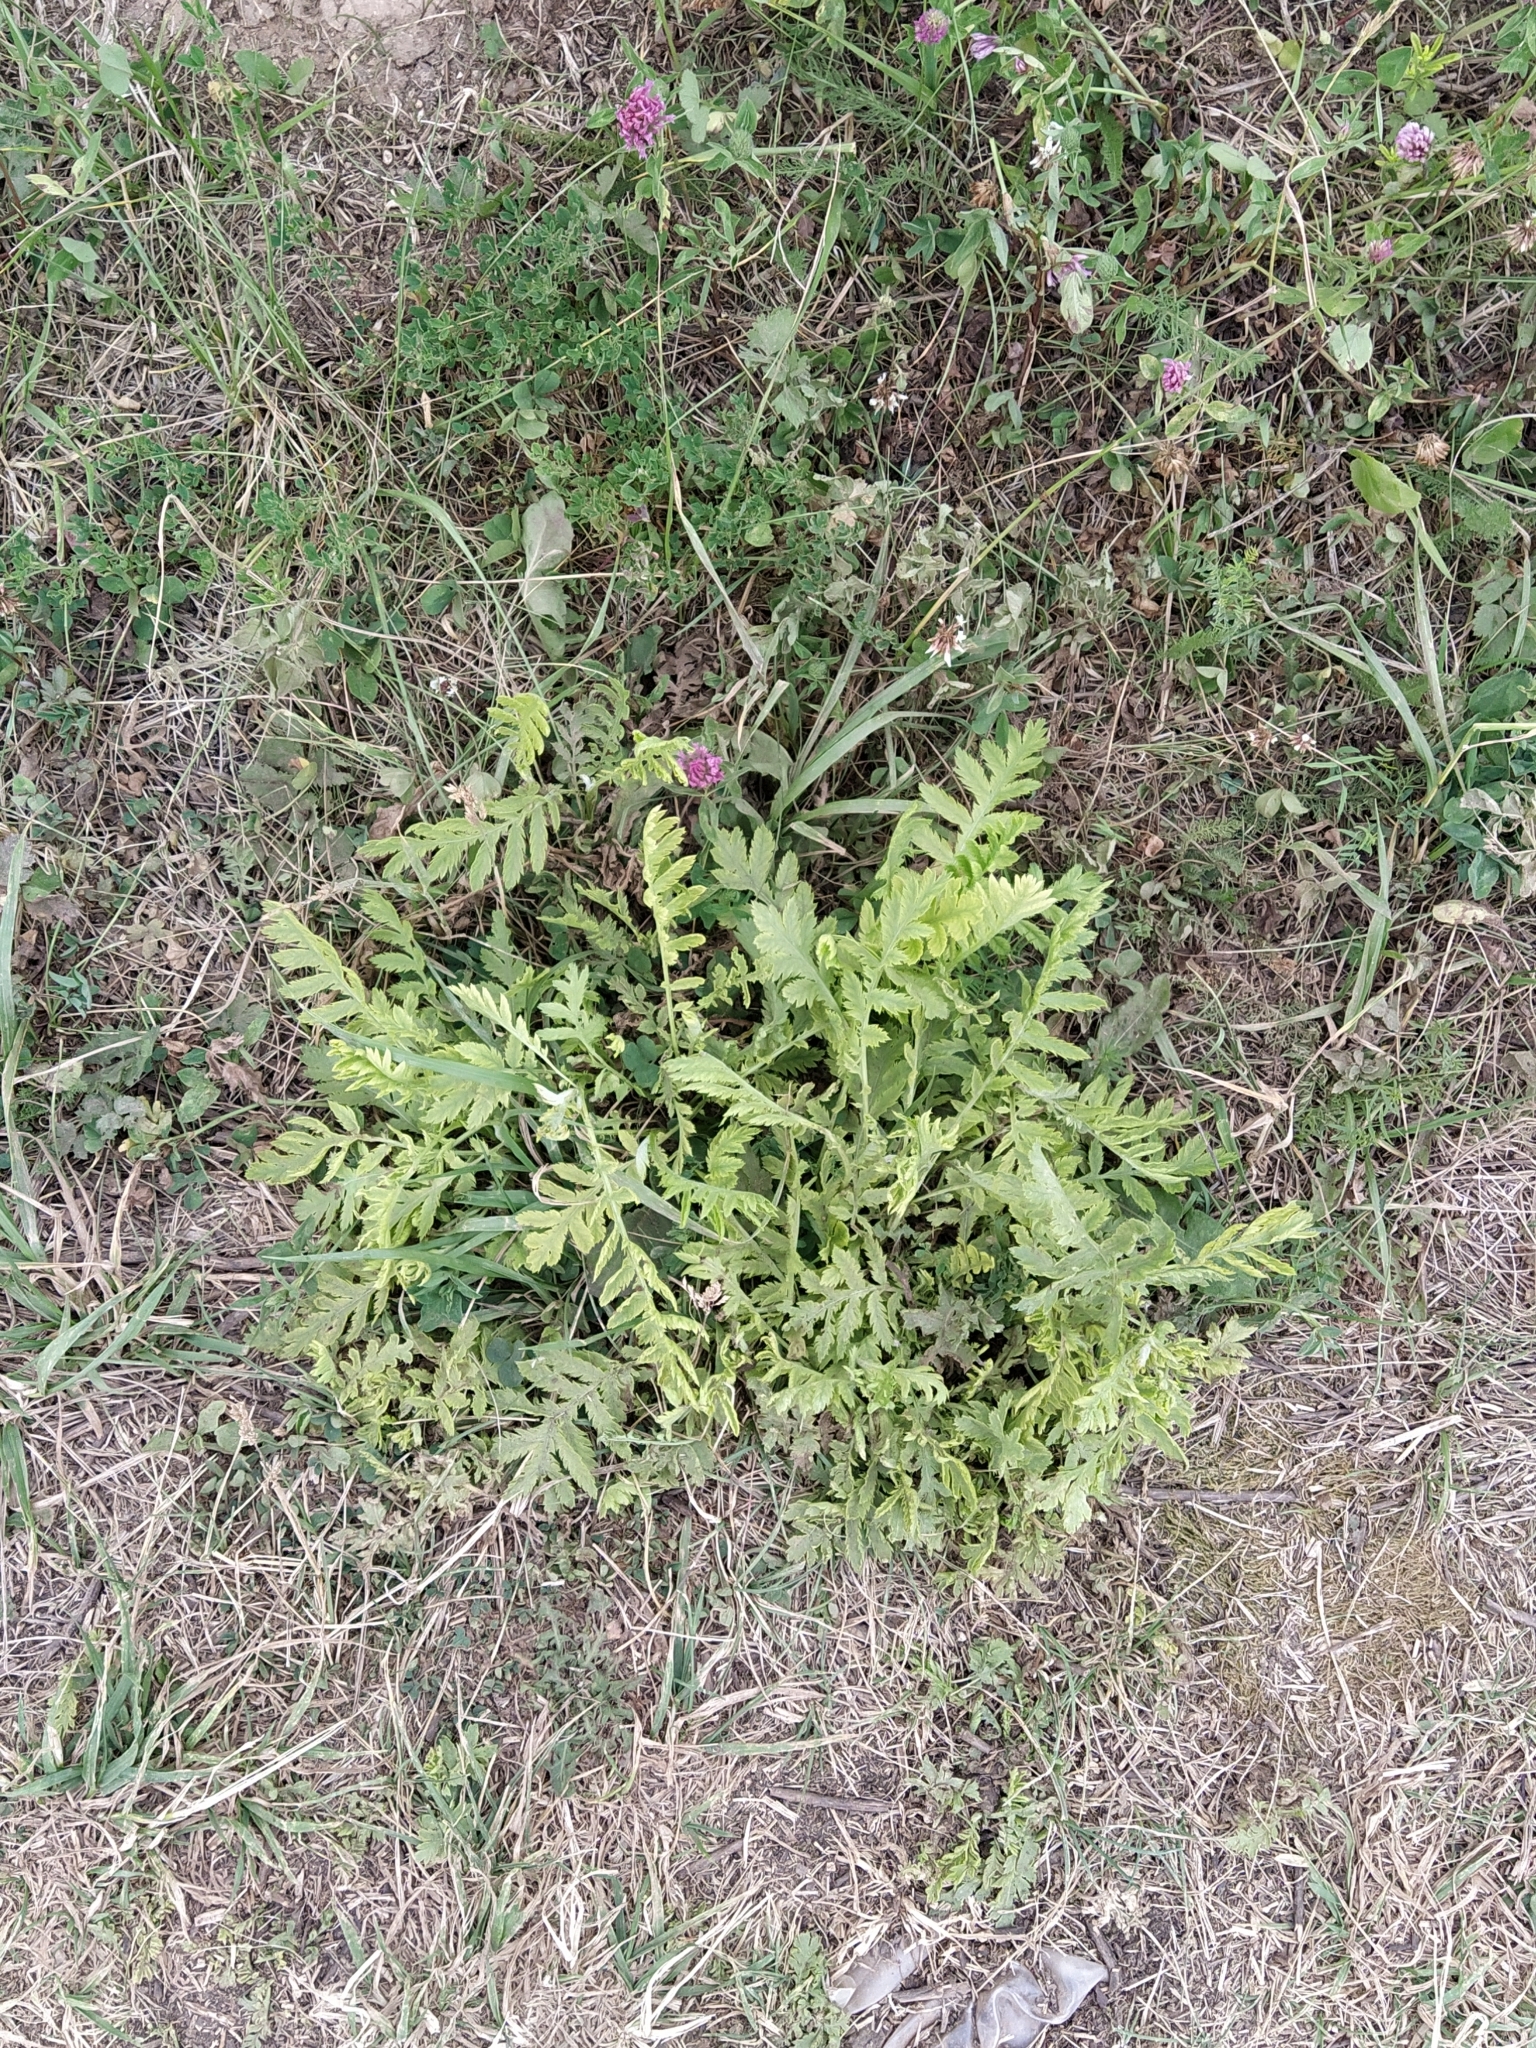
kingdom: Plantae
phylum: Tracheophyta
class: Magnoliopsida
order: Asterales
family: Asteraceae
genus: Tanacetum
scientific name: Tanacetum vulgare
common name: Common tansy
